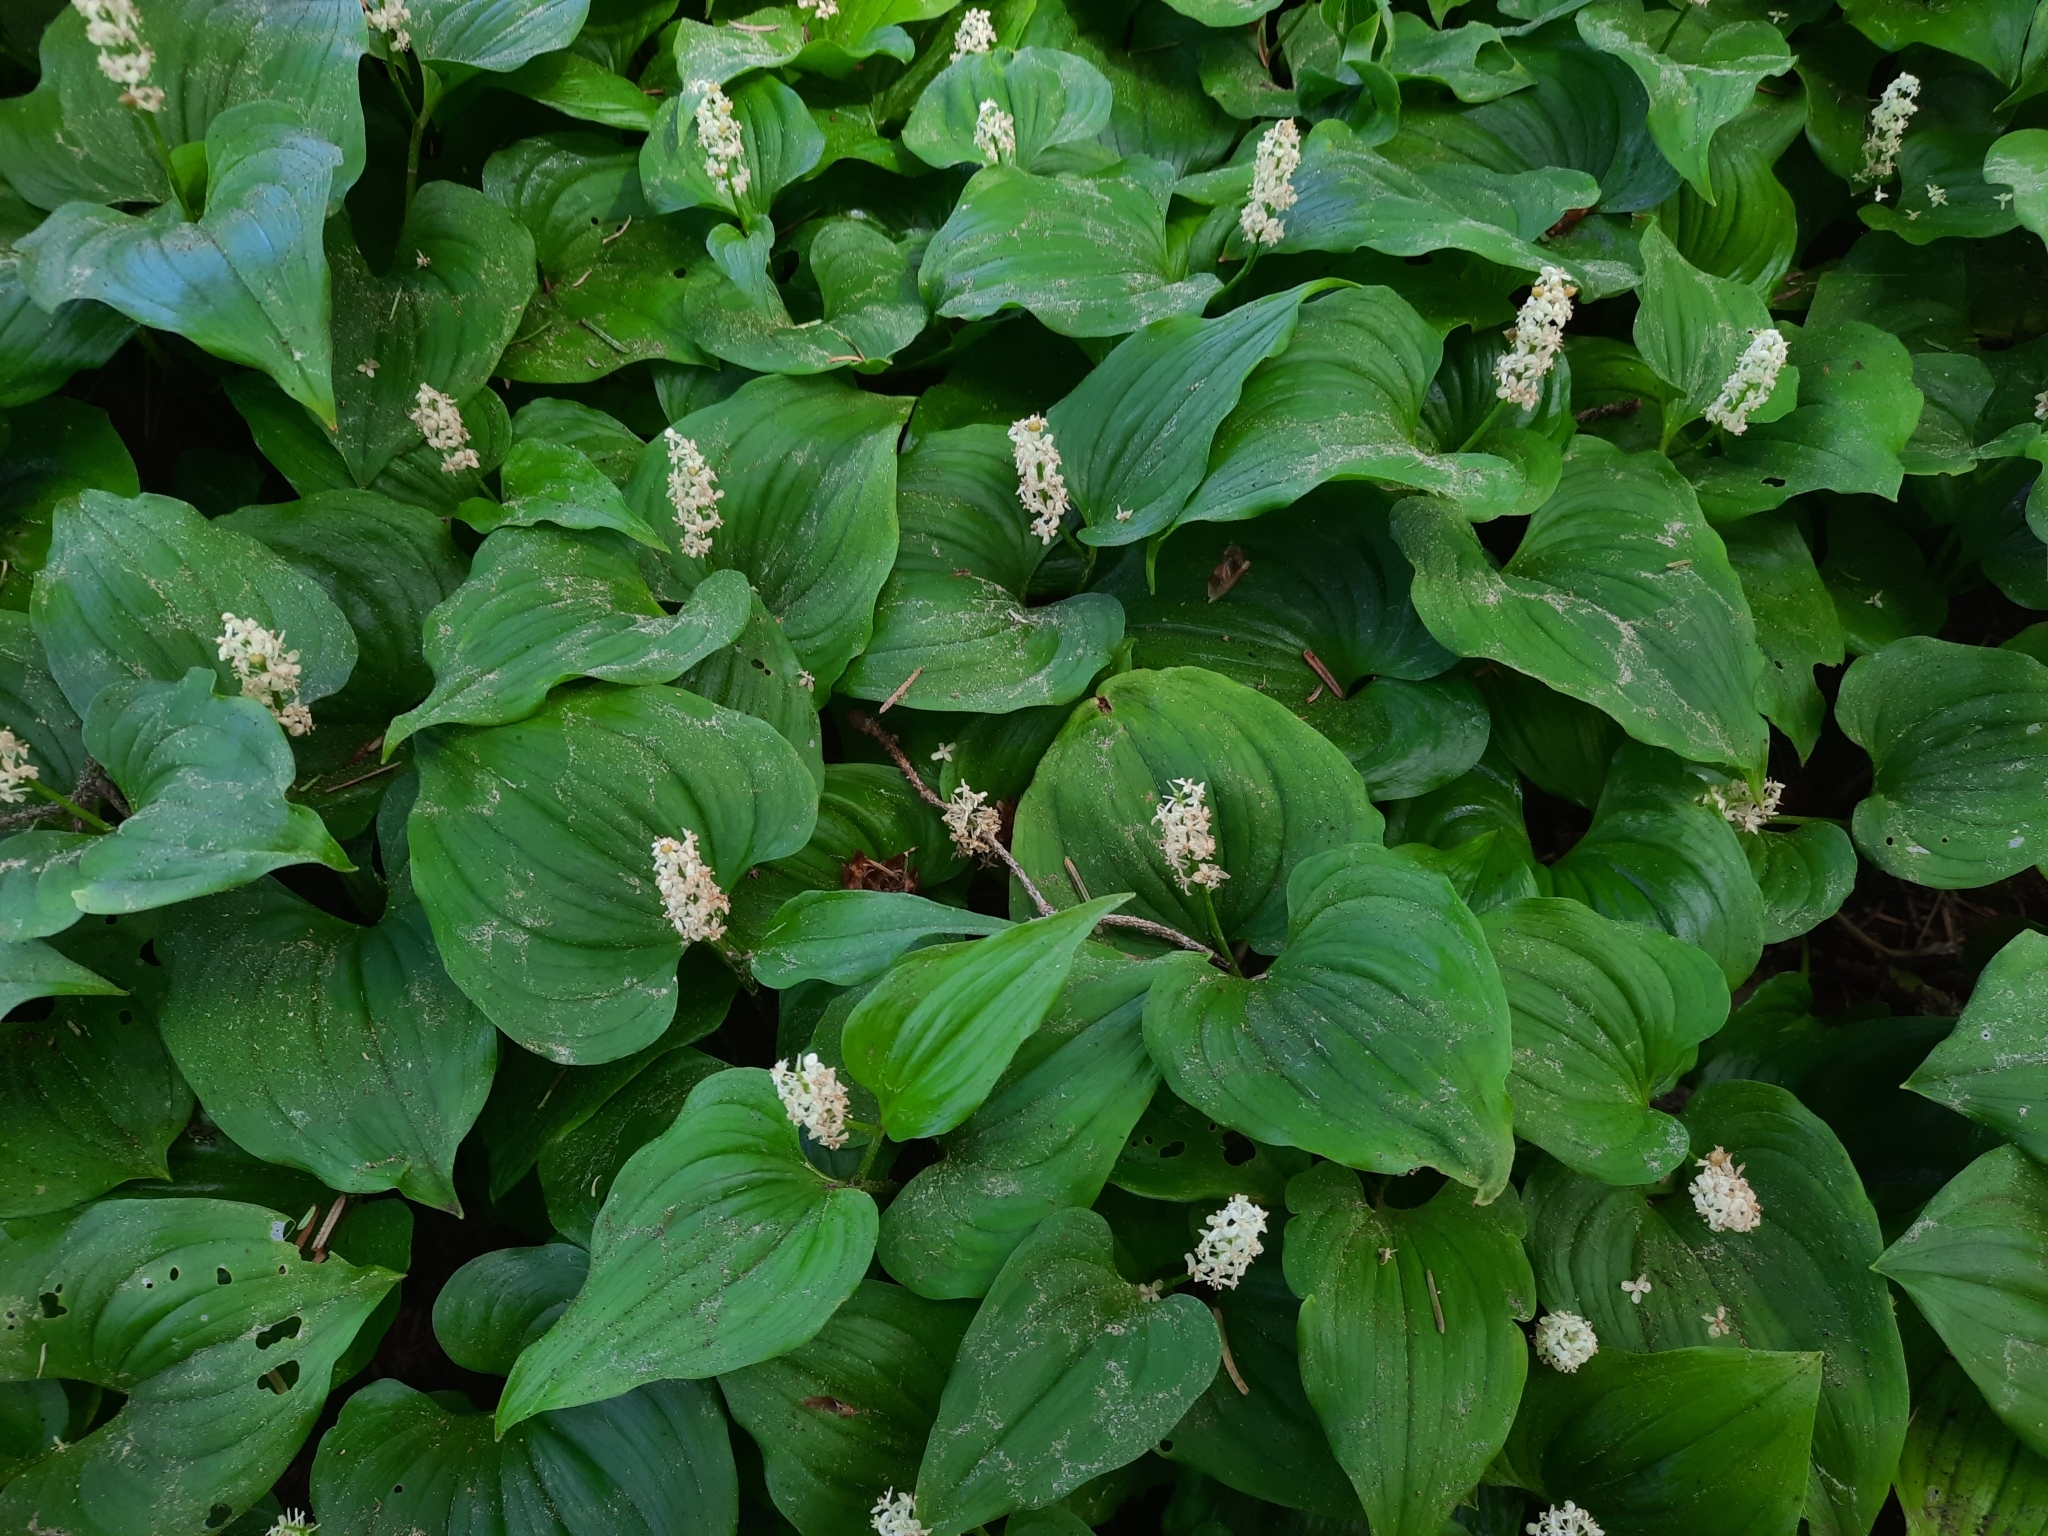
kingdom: Plantae
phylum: Tracheophyta
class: Liliopsida
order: Asparagales
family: Asparagaceae
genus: Maianthemum
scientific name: Maianthemum dilatatum
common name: False lily-of-the-valley
